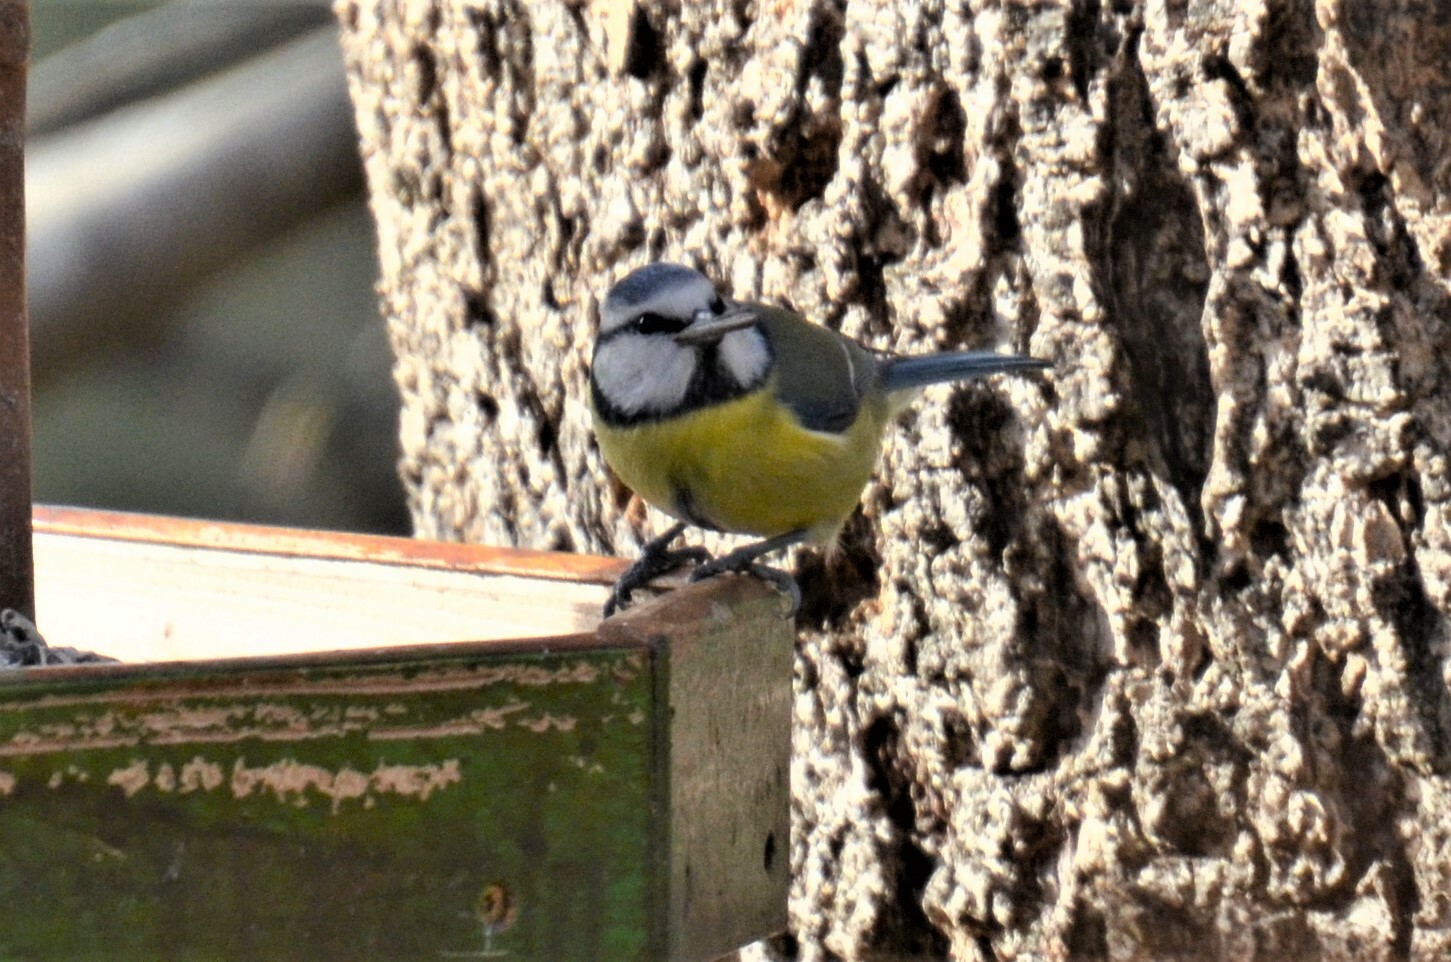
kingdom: Animalia
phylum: Chordata
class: Aves
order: Passeriformes
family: Paridae
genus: Cyanistes
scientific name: Cyanistes caeruleus
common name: Eurasian blue tit
